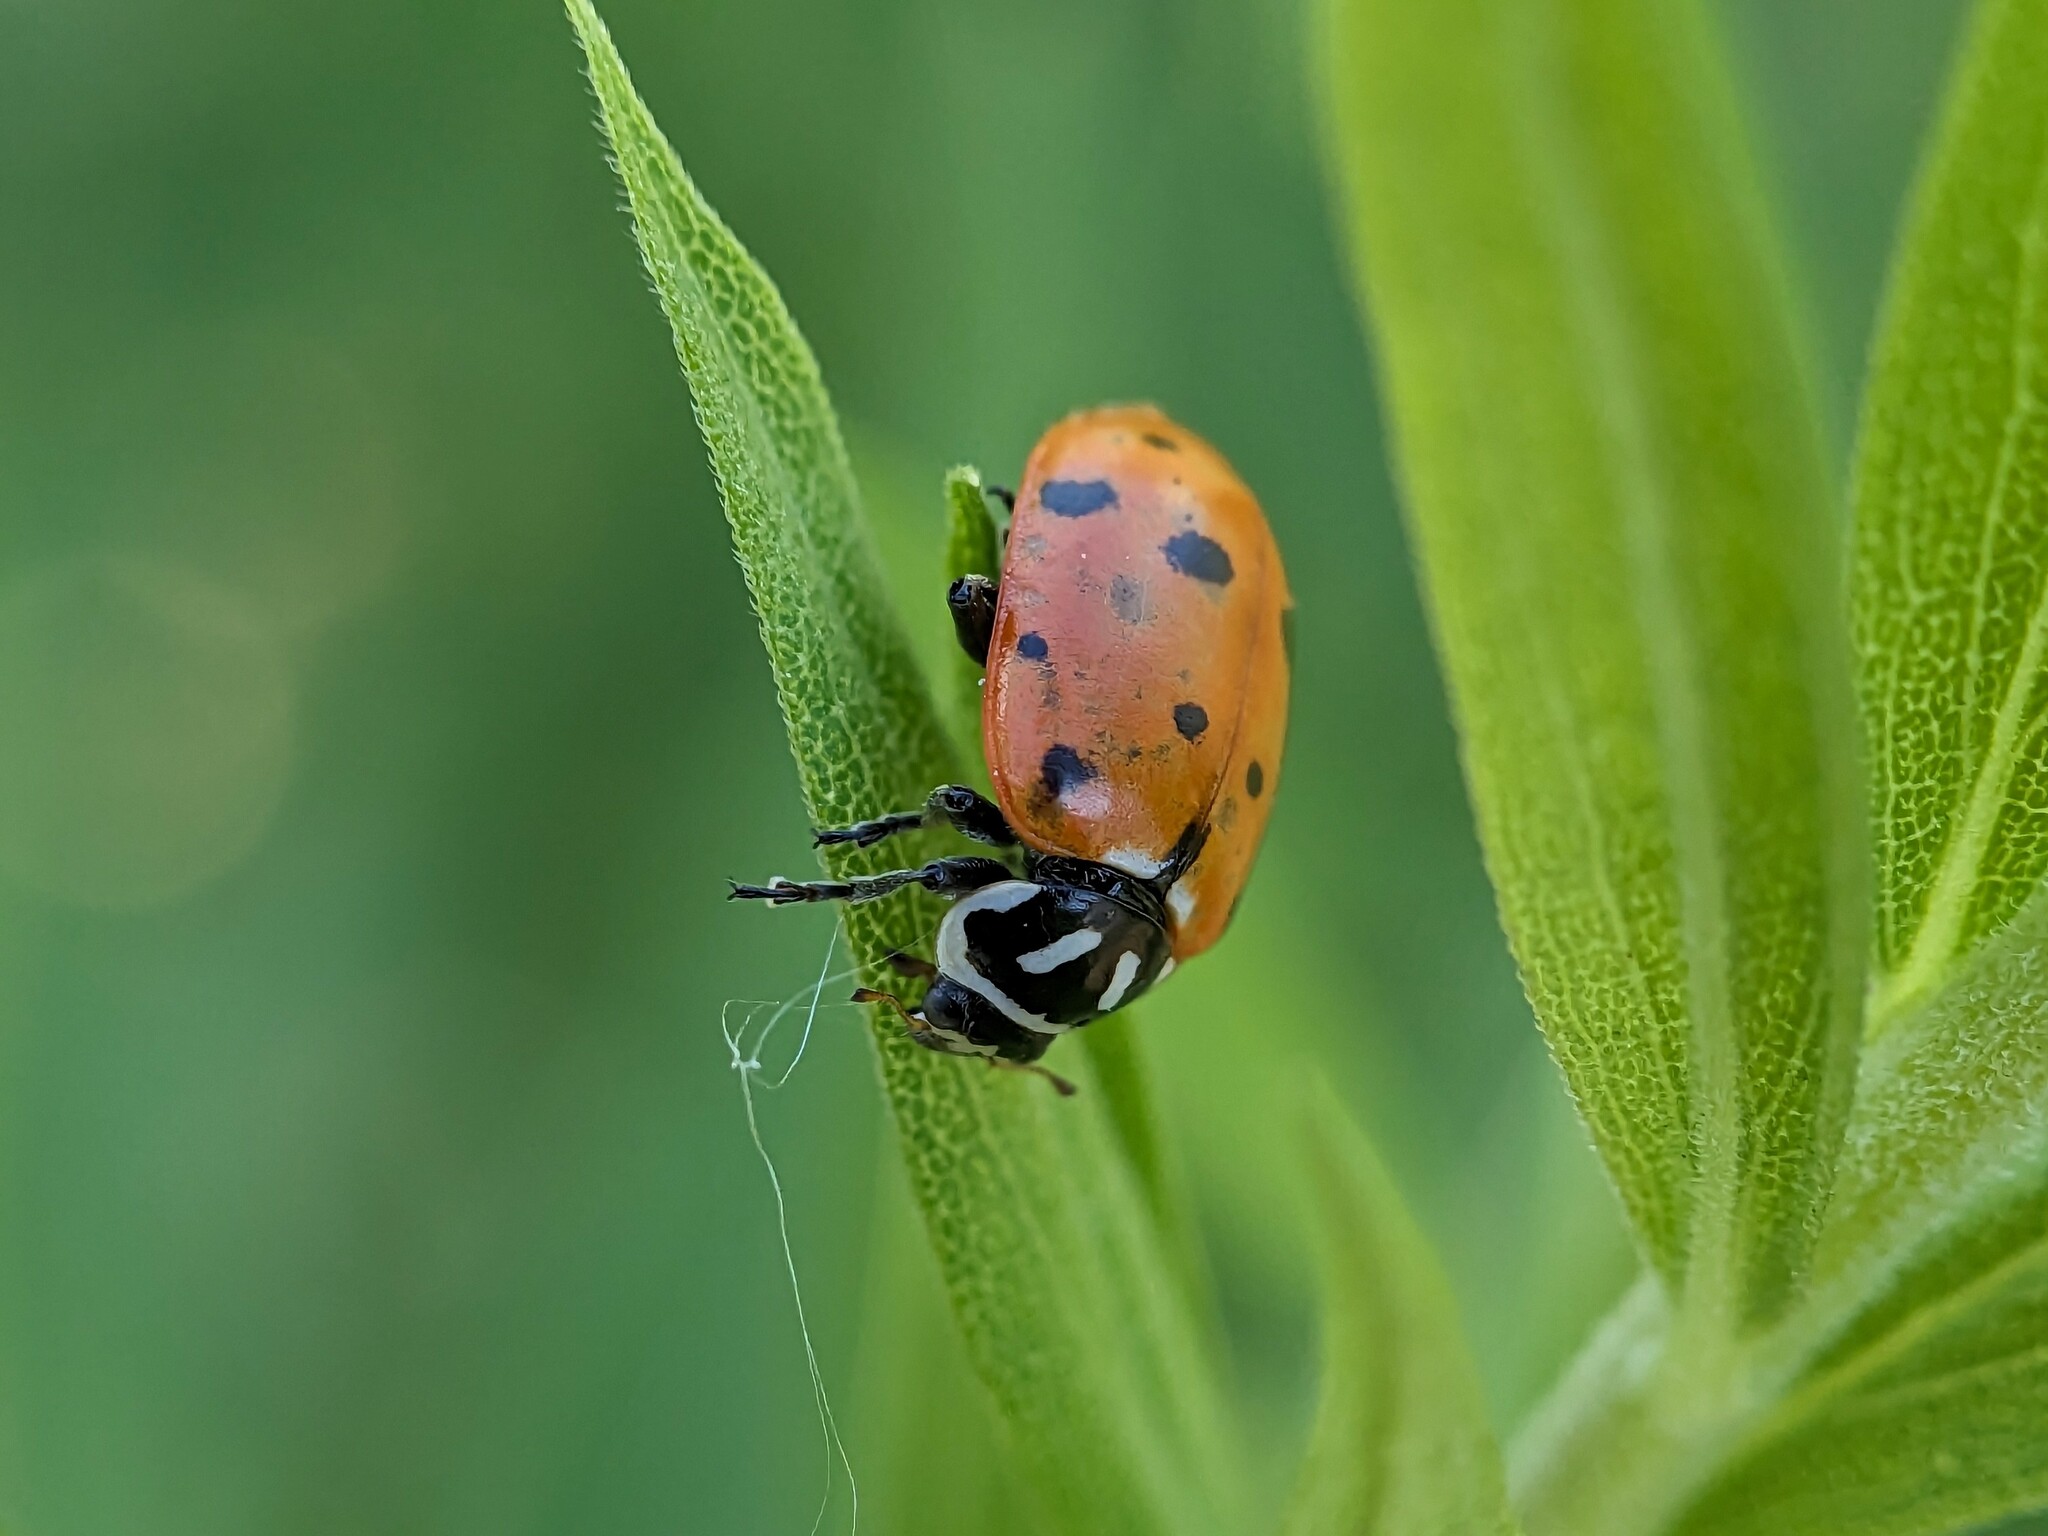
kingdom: Animalia
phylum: Arthropoda
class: Insecta
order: Coleoptera
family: Coccinellidae
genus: Hippodamia
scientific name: Hippodamia convergens
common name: Convergent lady beetle
